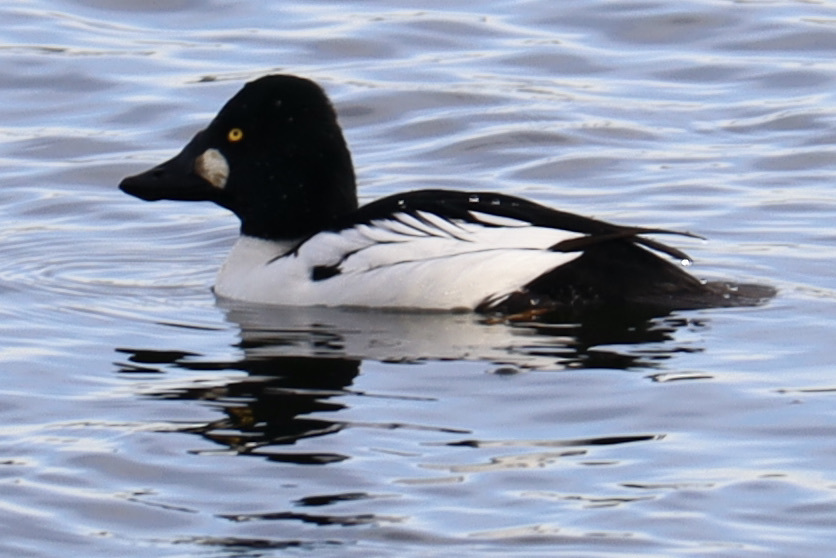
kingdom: Animalia
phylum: Chordata
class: Aves
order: Anseriformes
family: Anatidae
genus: Bucephala
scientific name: Bucephala clangula
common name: Common goldeneye
